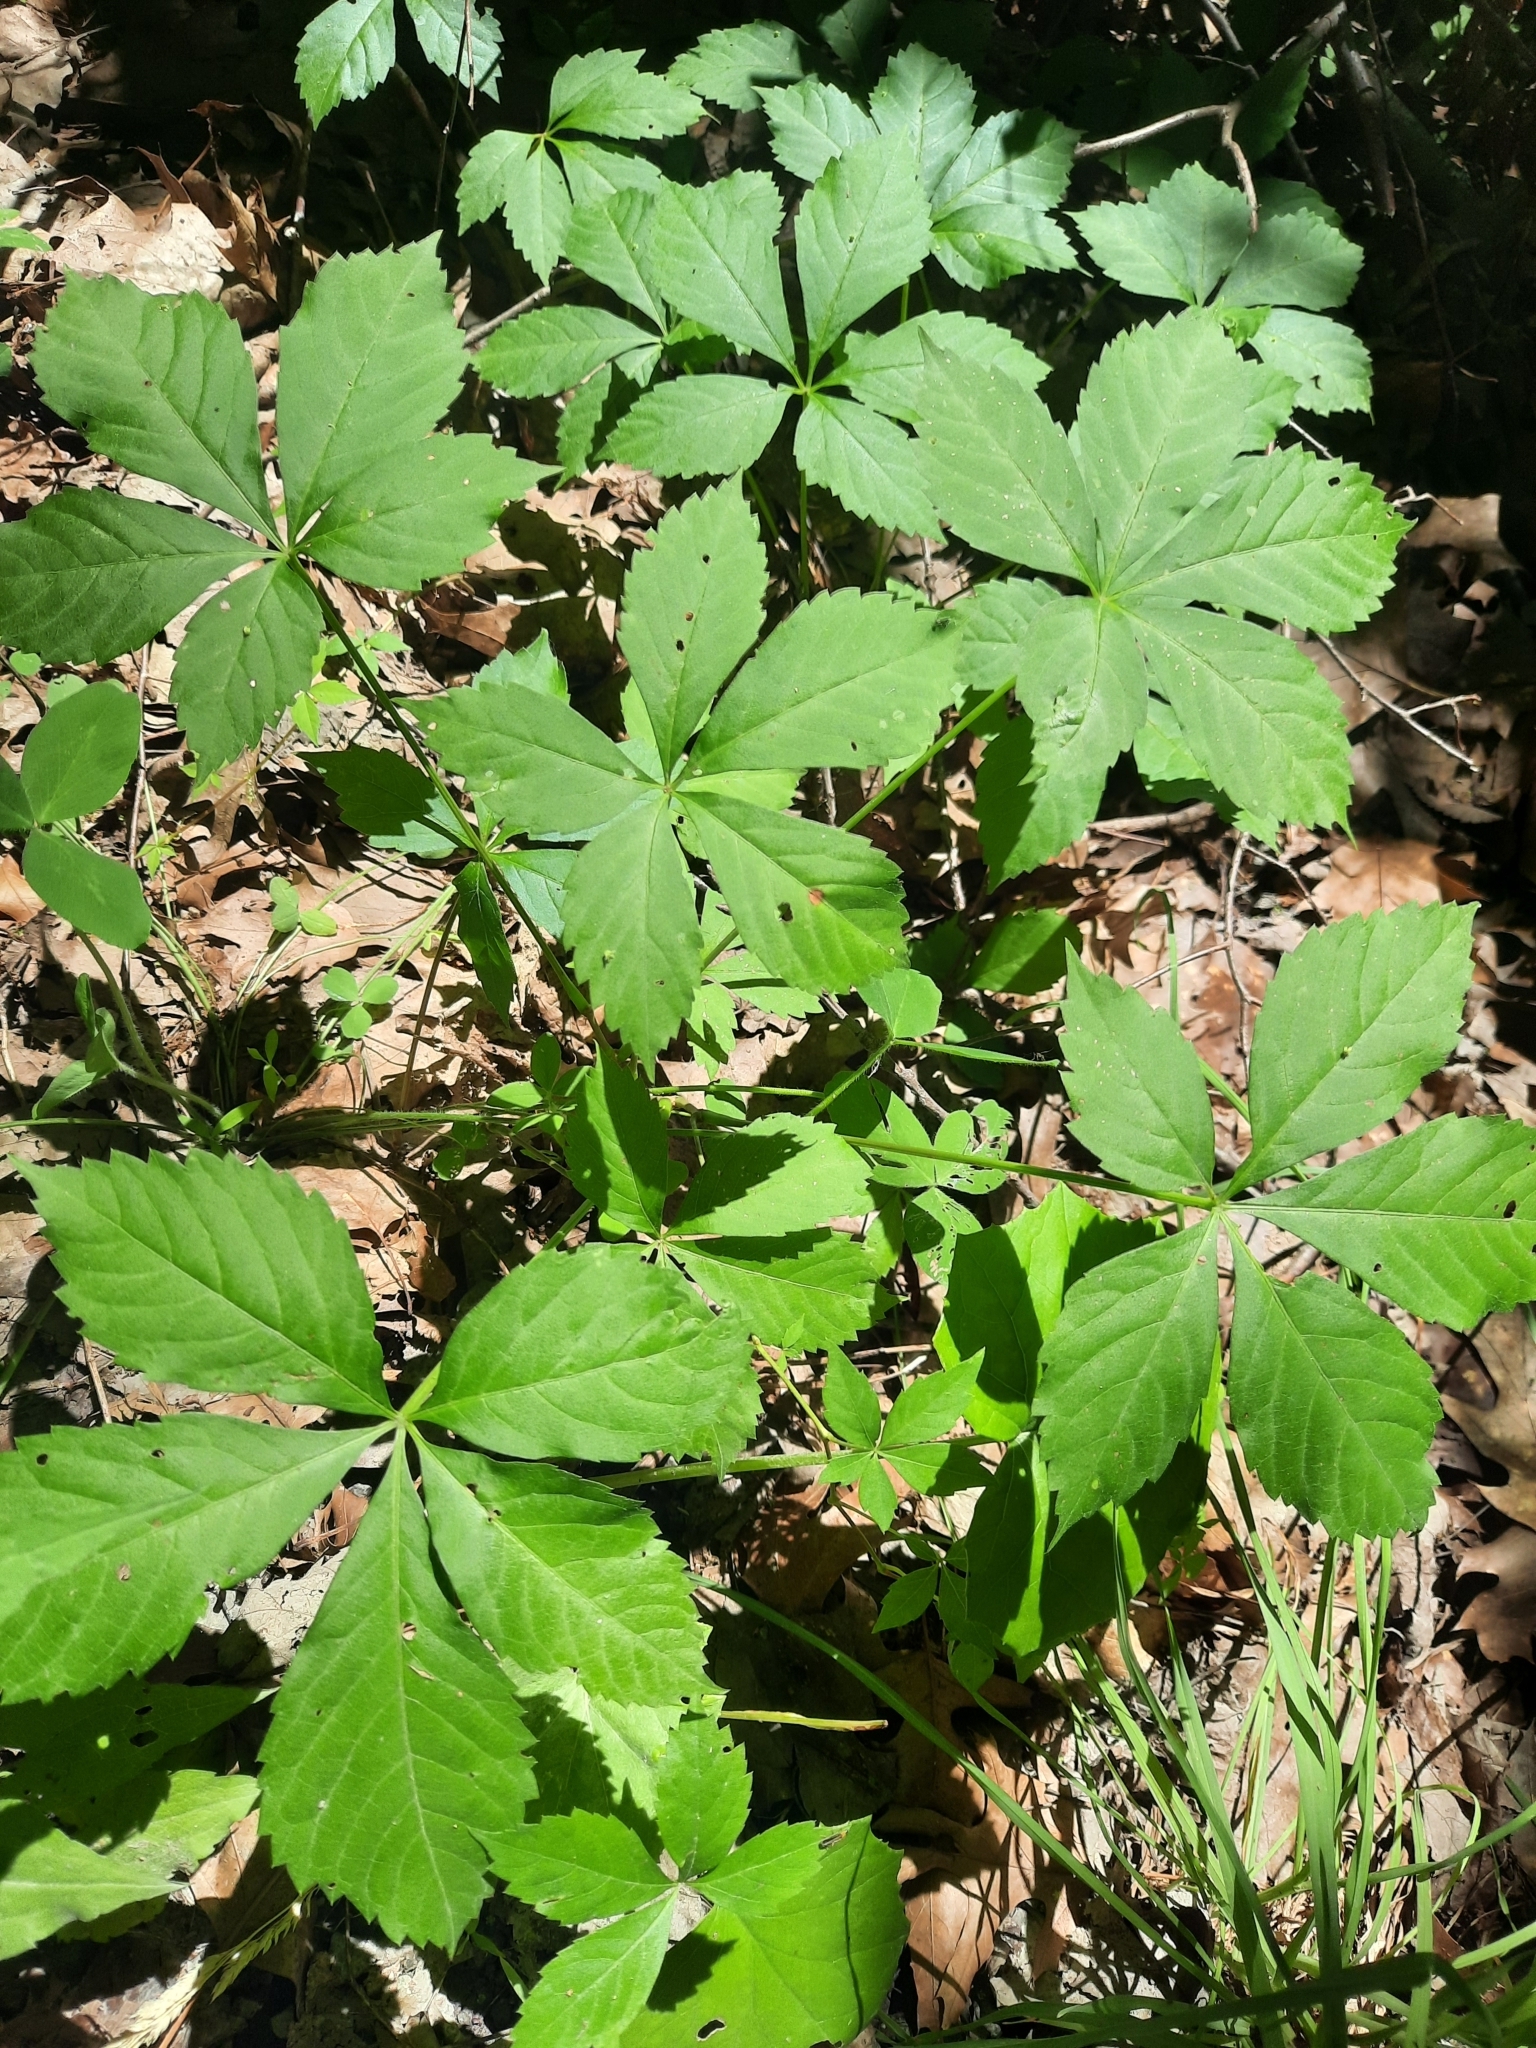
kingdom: Plantae
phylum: Tracheophyta
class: Magnoliopsida
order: Vitales
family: Vitaceae
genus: Parthenocissus
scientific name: Parthenocissus
